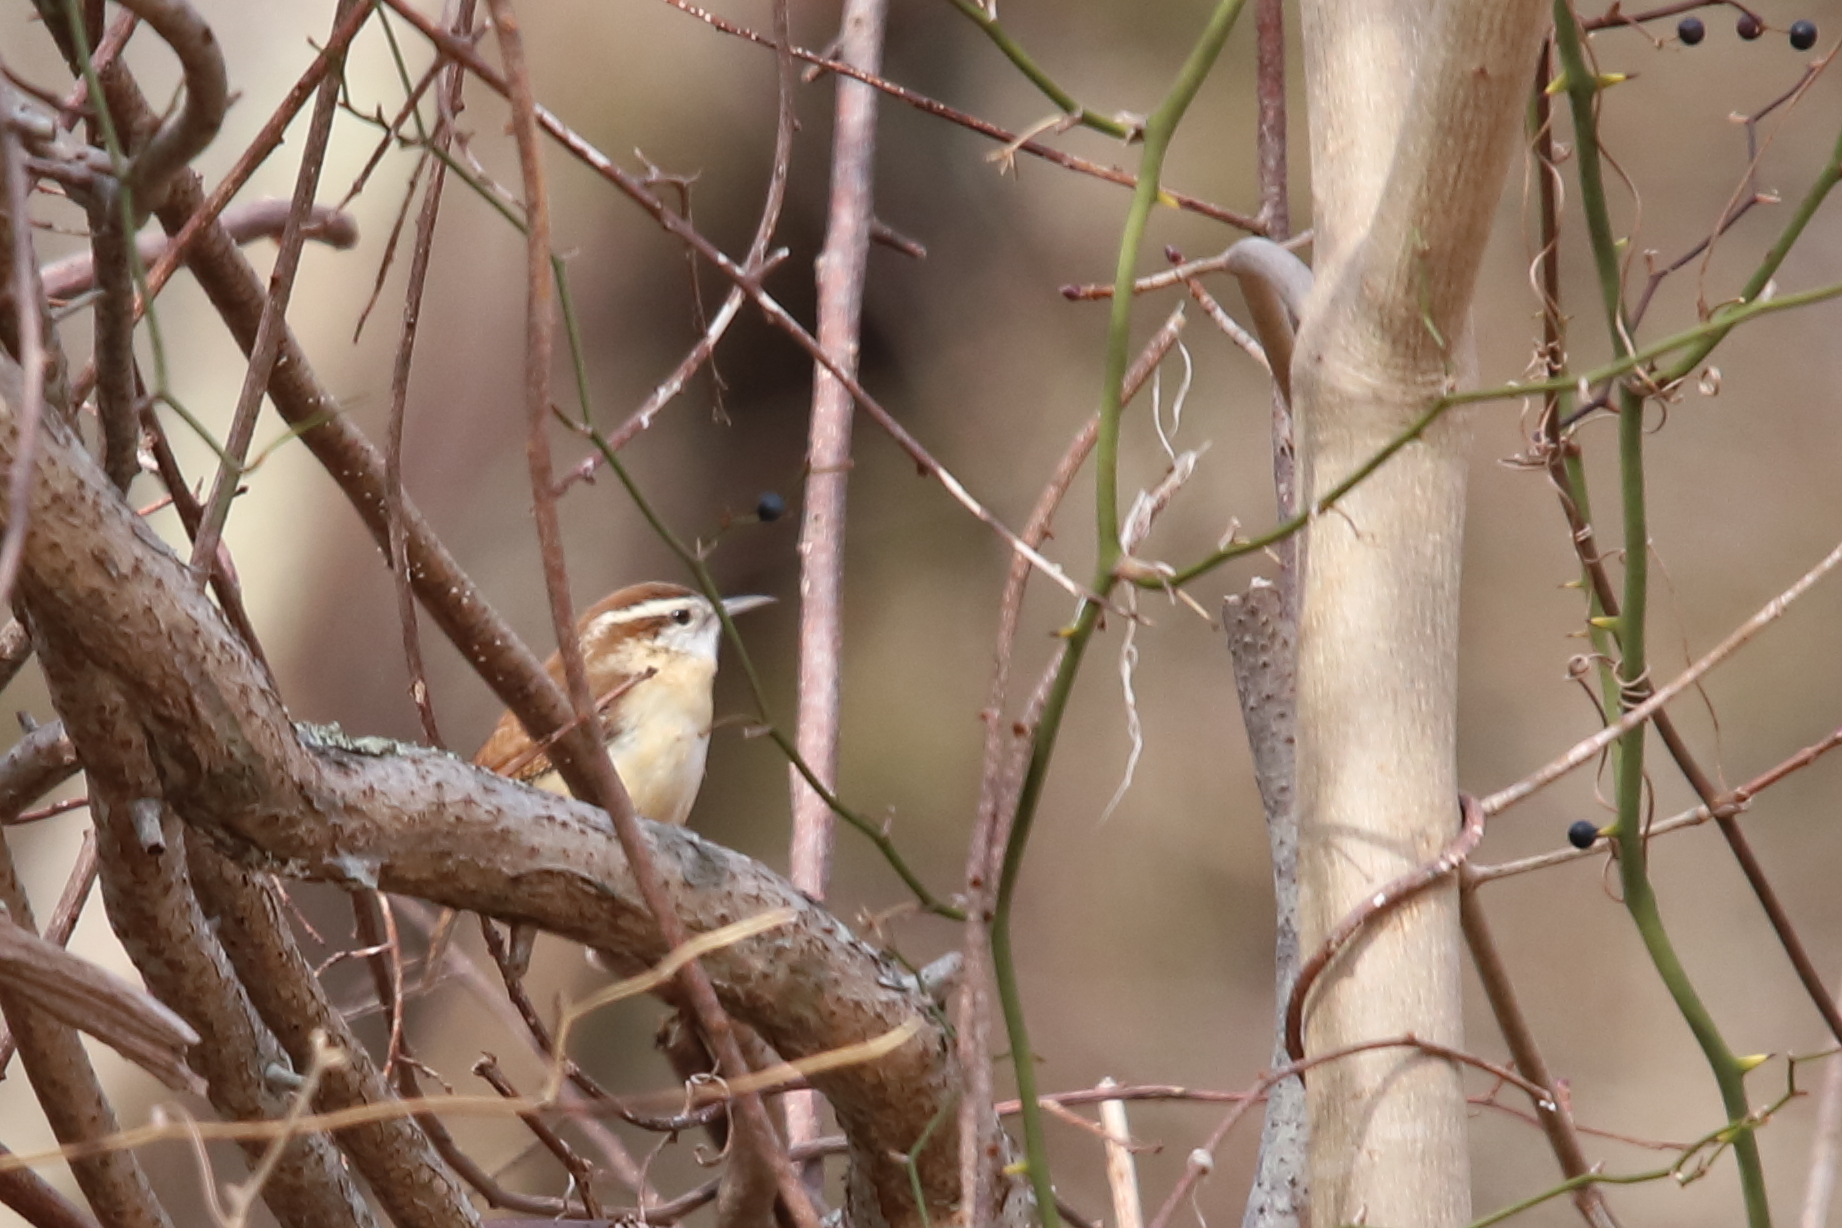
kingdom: Animalia
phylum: Chordata
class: Aves
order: Passeriformes
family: Troglodytidae
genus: Thryothorus
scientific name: Thryothorus ludovicianus
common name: Carolina wren
